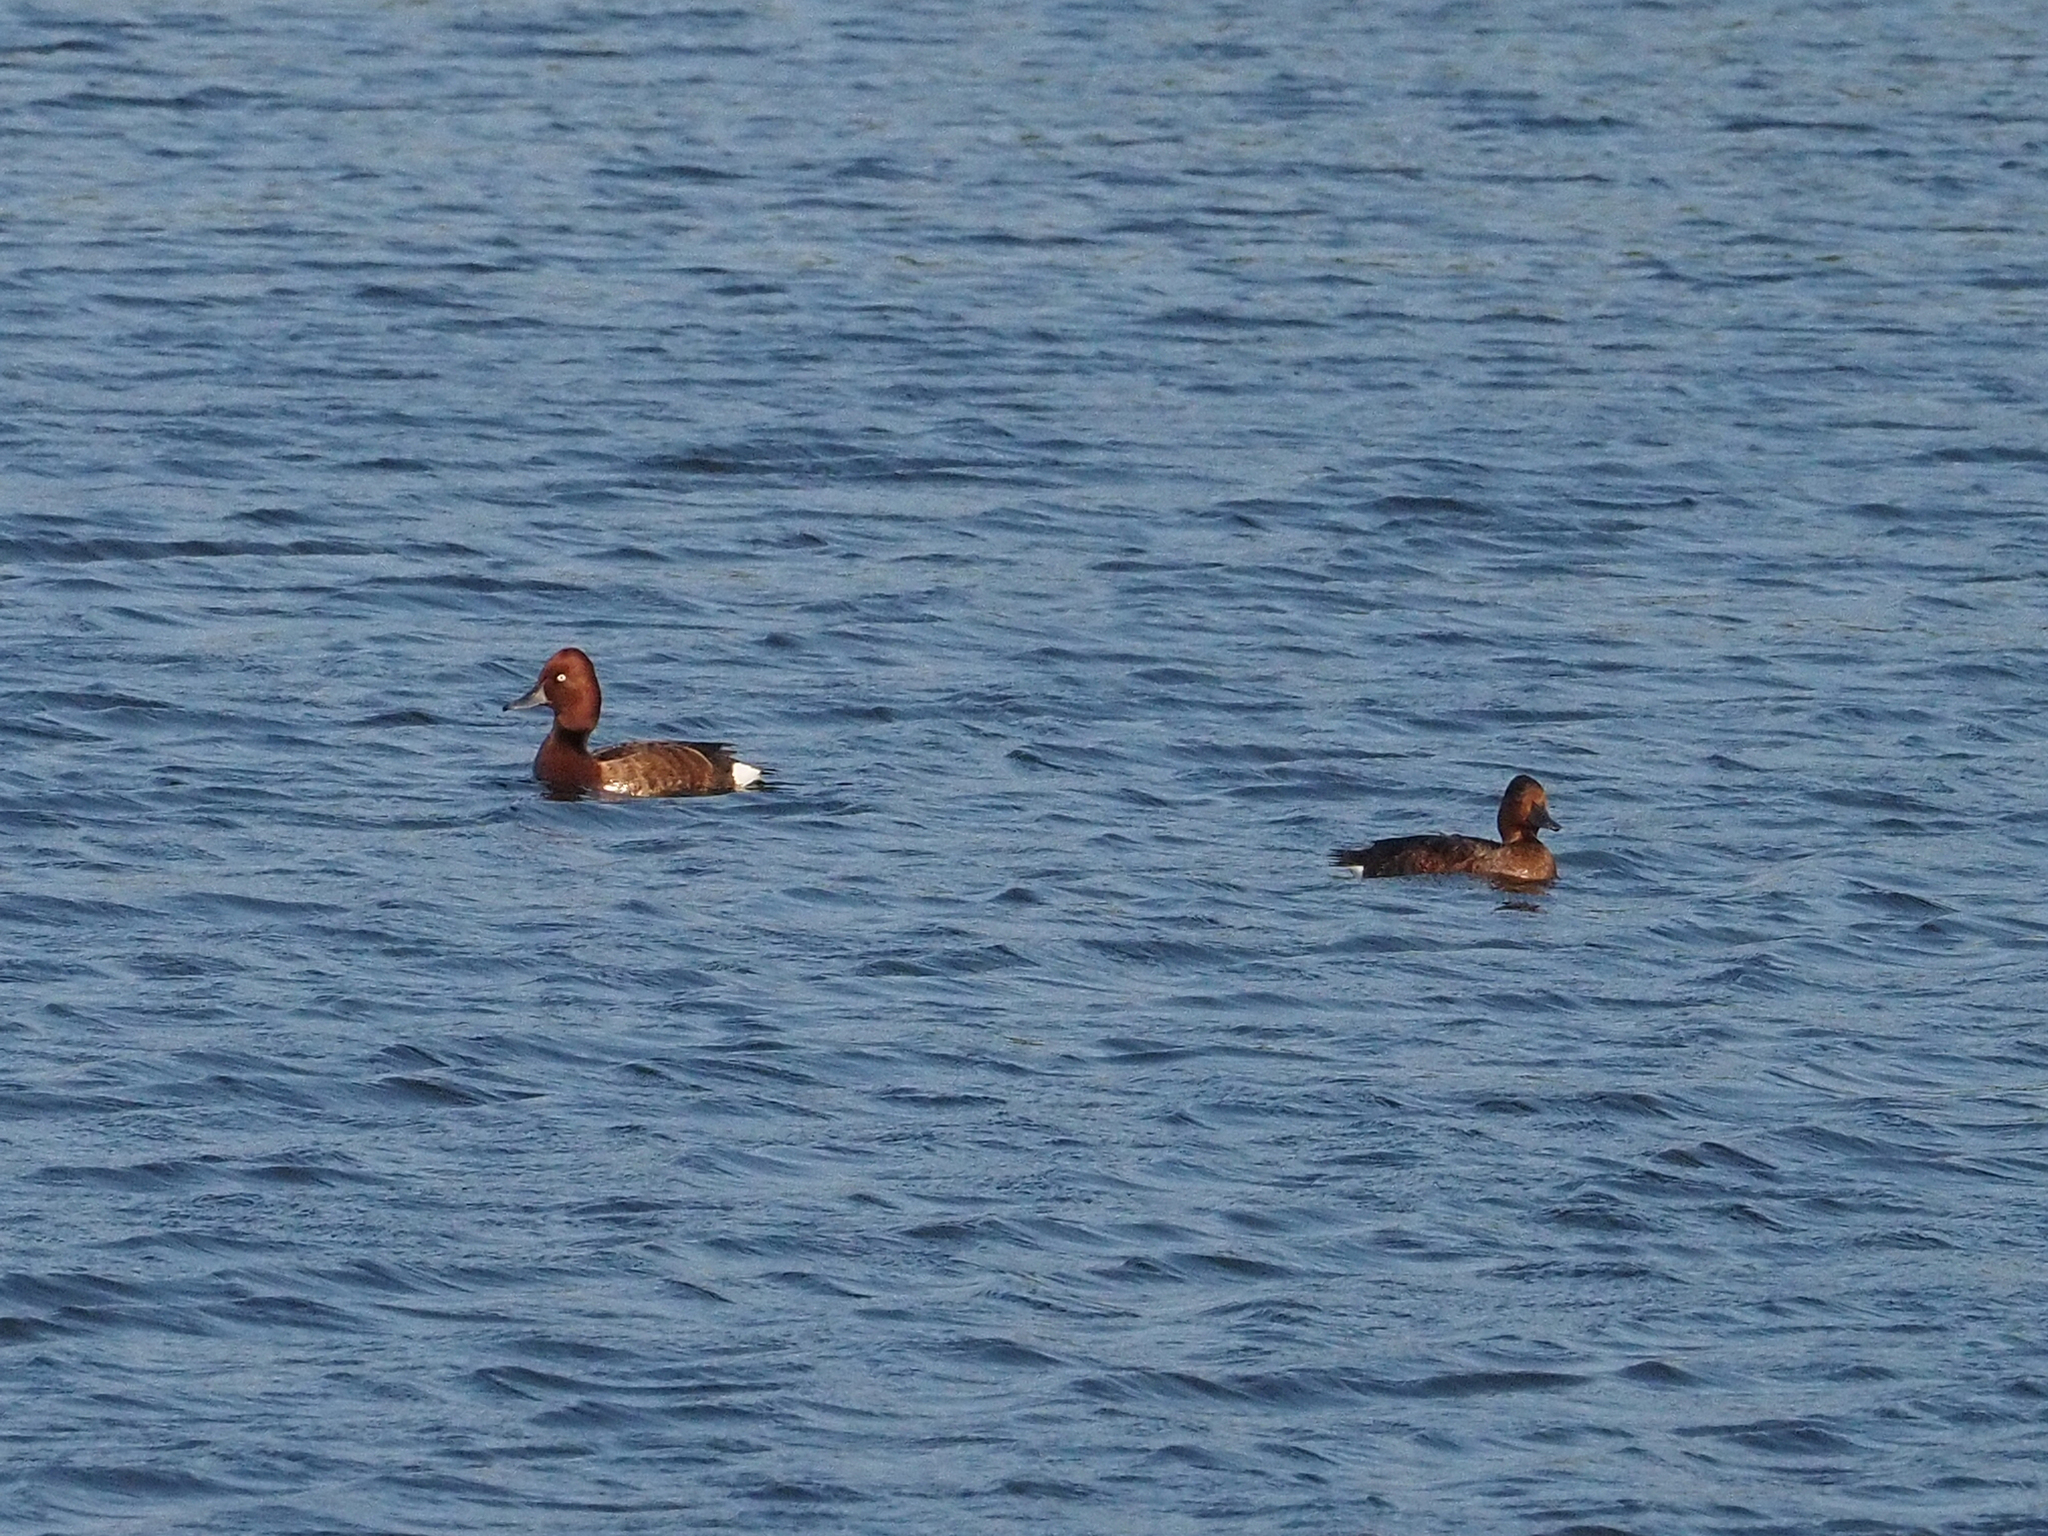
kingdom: Animalia
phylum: Chordata
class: Aves
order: Anseriformes
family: Anatidae
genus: Aythya
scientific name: Aythya nyroca
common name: Ferruginous duck
